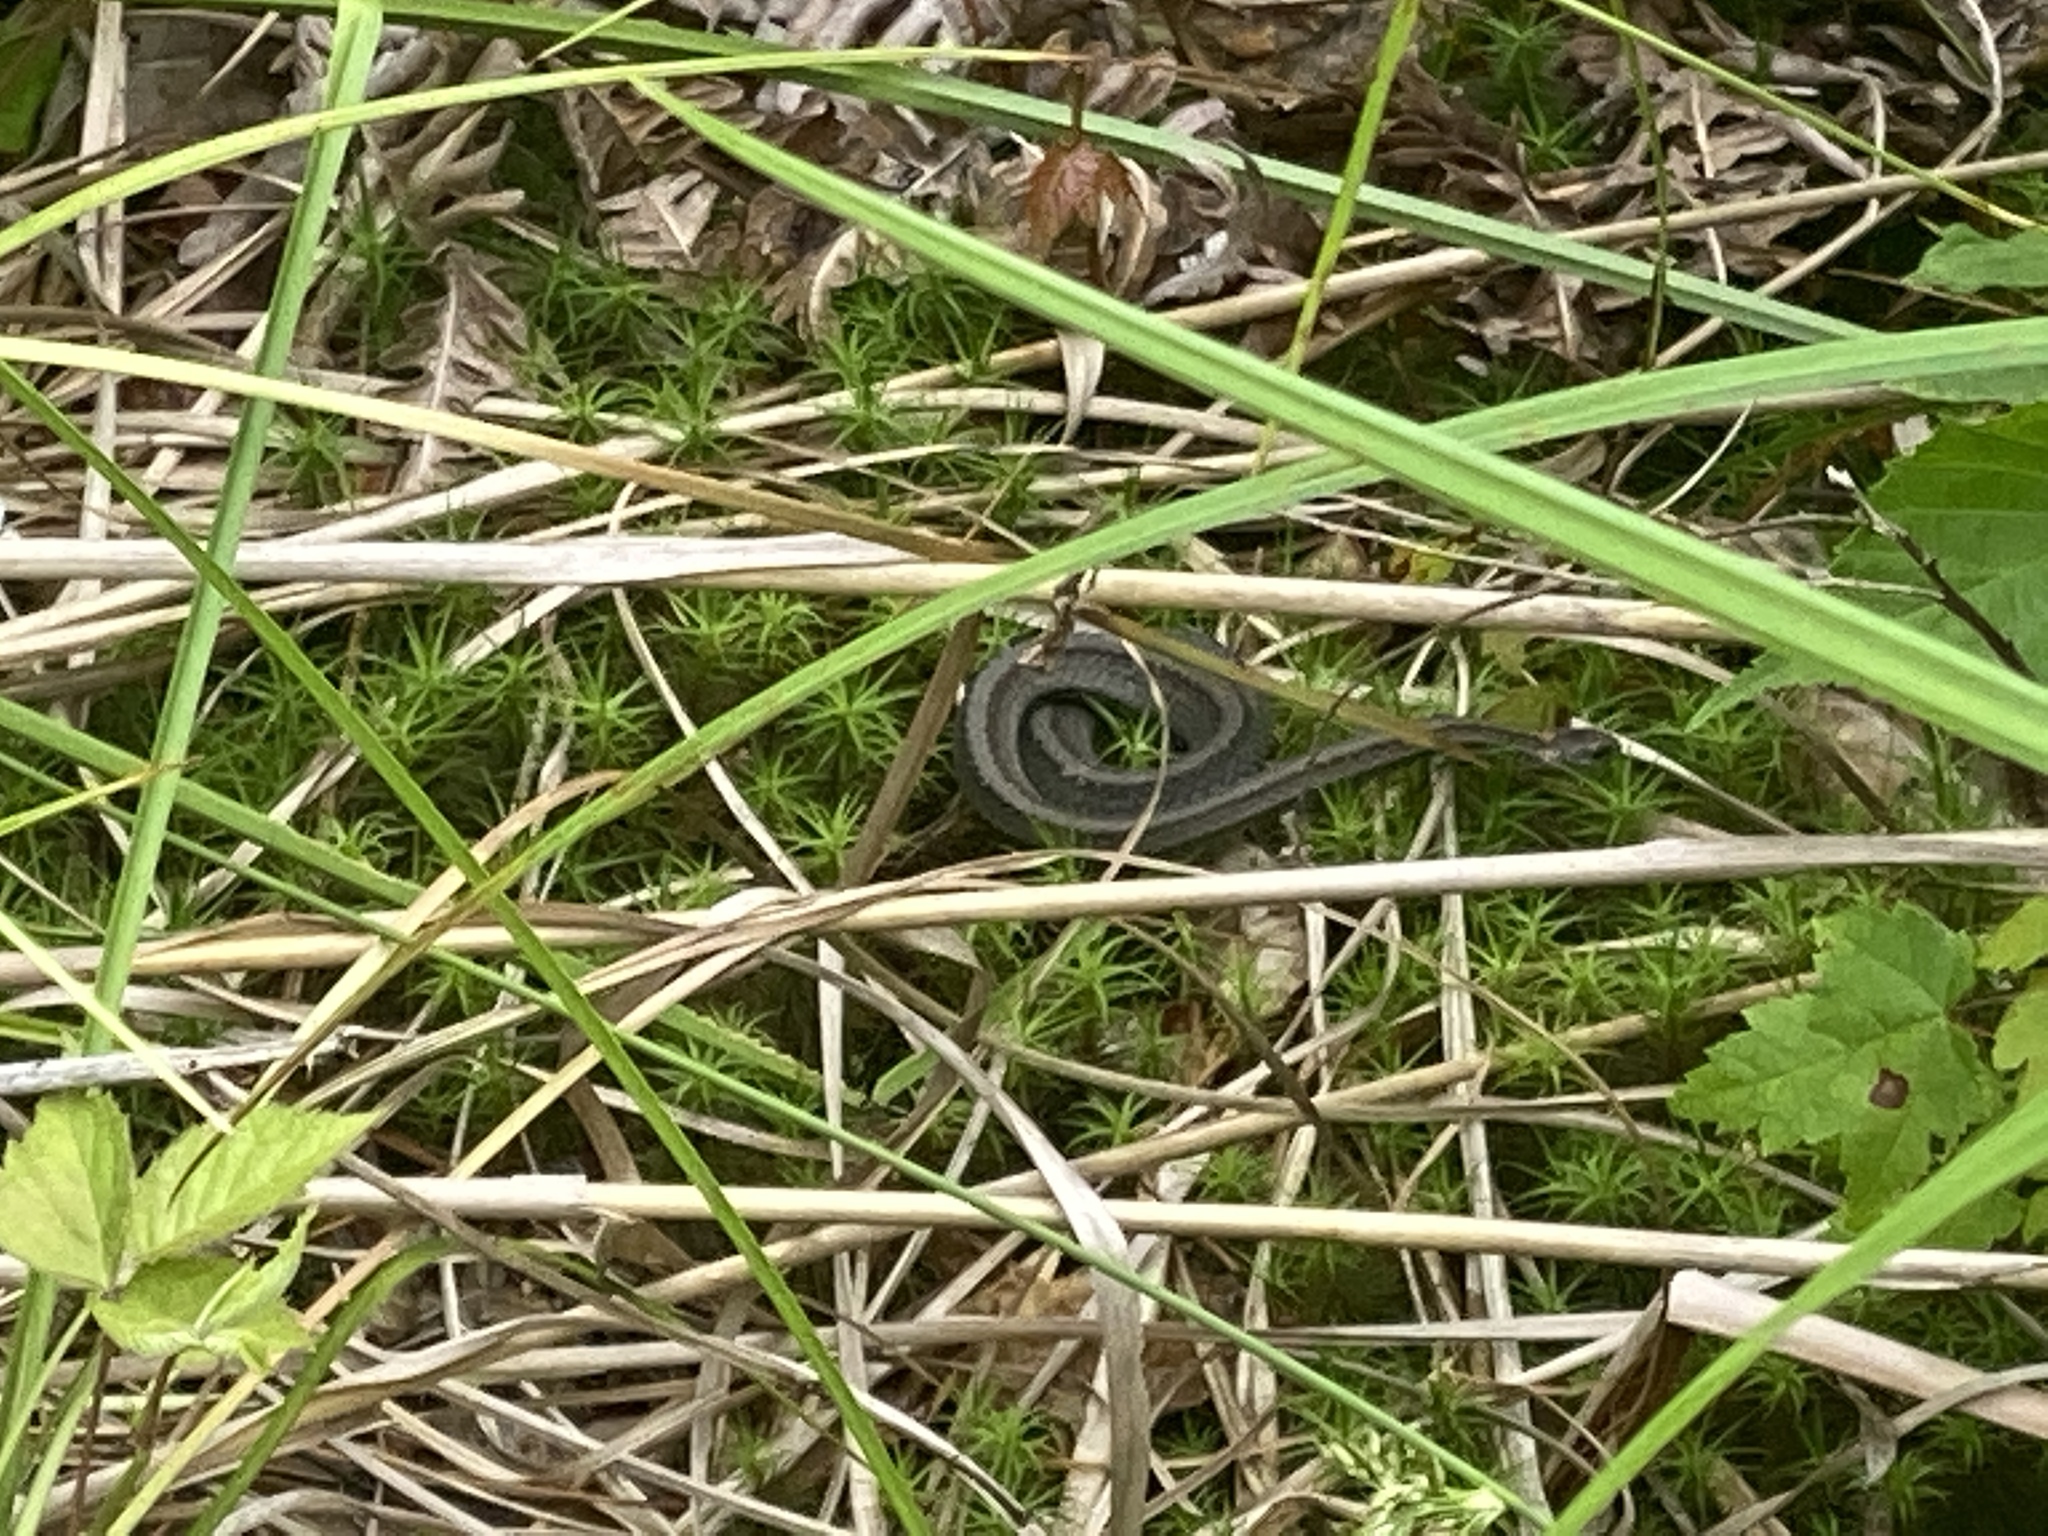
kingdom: Animalia
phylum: Chordata
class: Squamata
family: Colubridae
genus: Storeria
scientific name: Storeria occipitomaculata
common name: Redbelly snake
